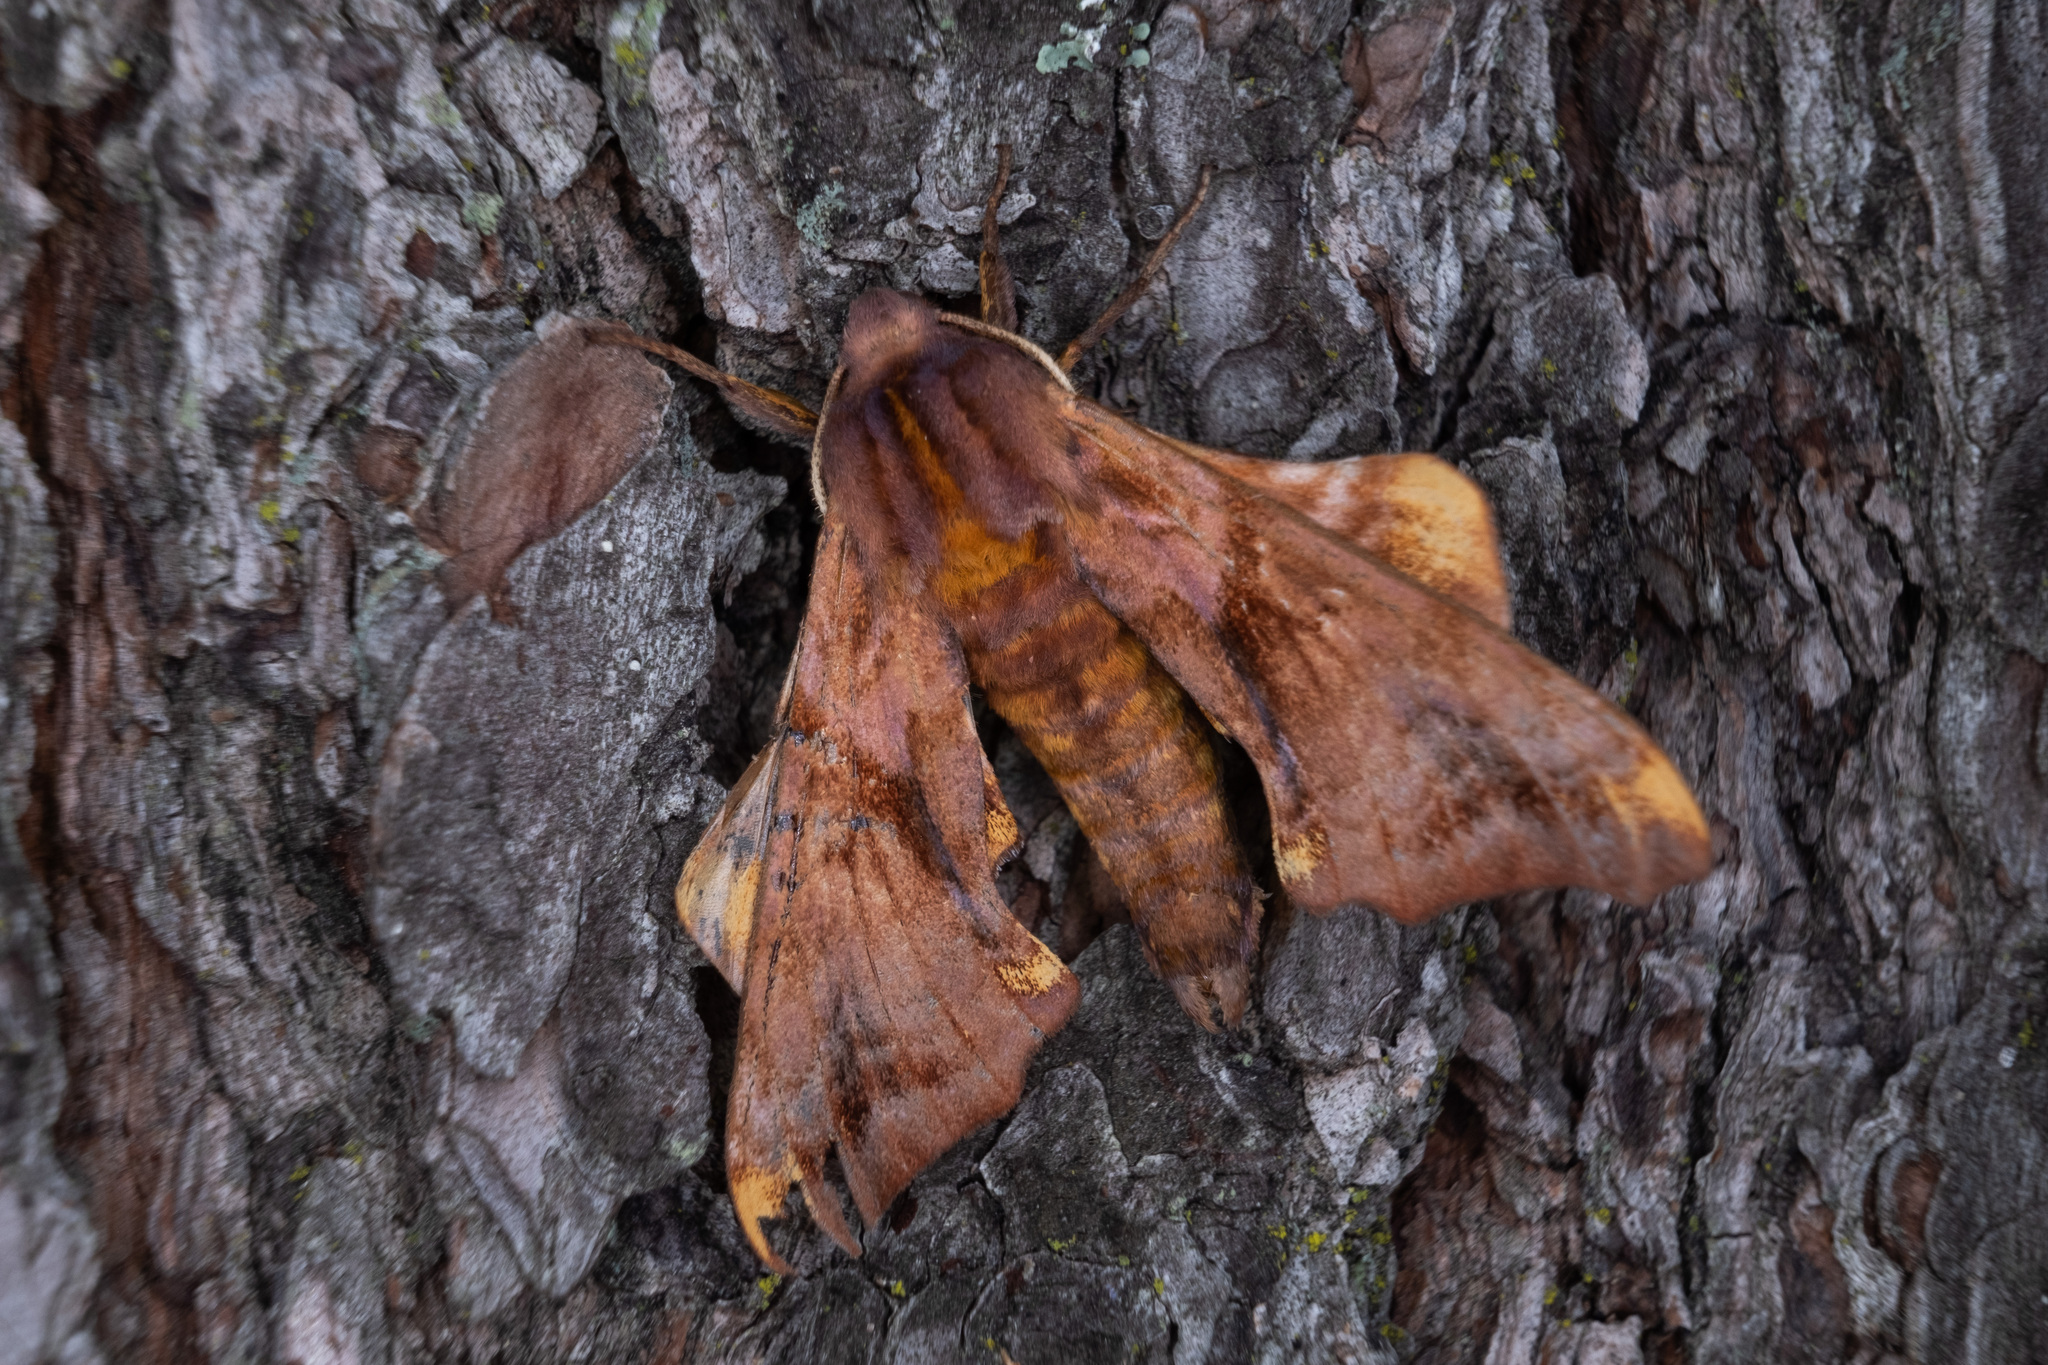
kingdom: Animalia
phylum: Arthropoda
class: Insecta
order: Lepidoptera
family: Sphingidae
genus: Paonias
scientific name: Paonias myops
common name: Small-eyed sphinx
